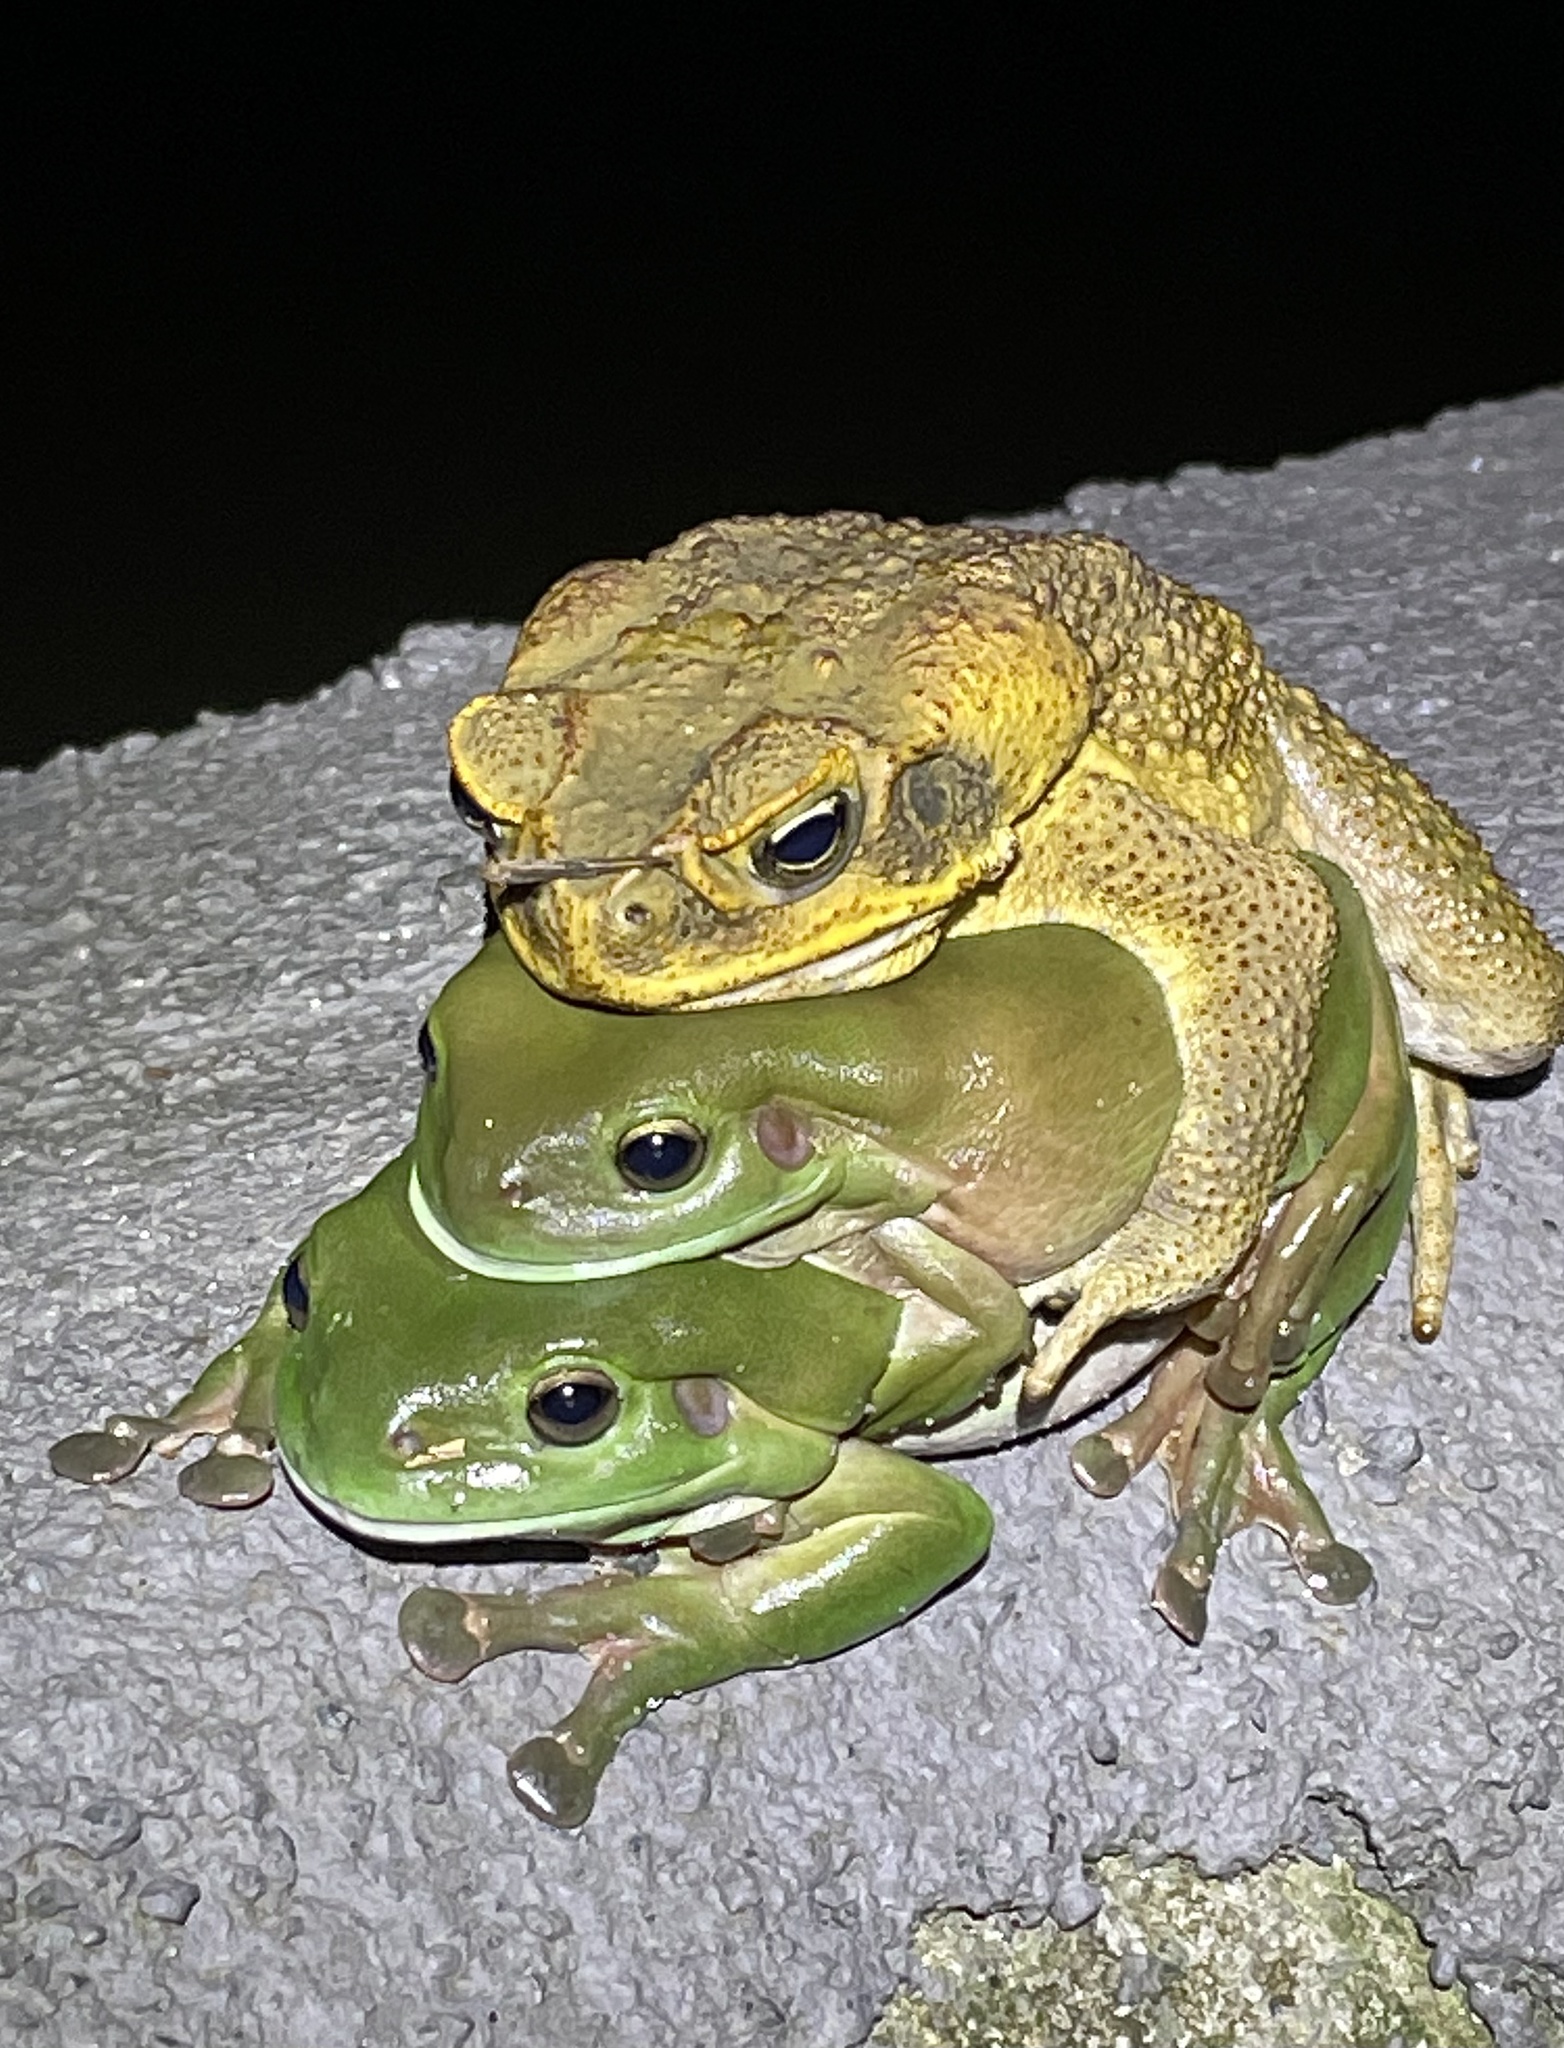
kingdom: Animalia
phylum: Chordata
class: Amphibia
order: Anura
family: Bufonidae
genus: Rhinella
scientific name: Rhinella marina
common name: Cane toad
